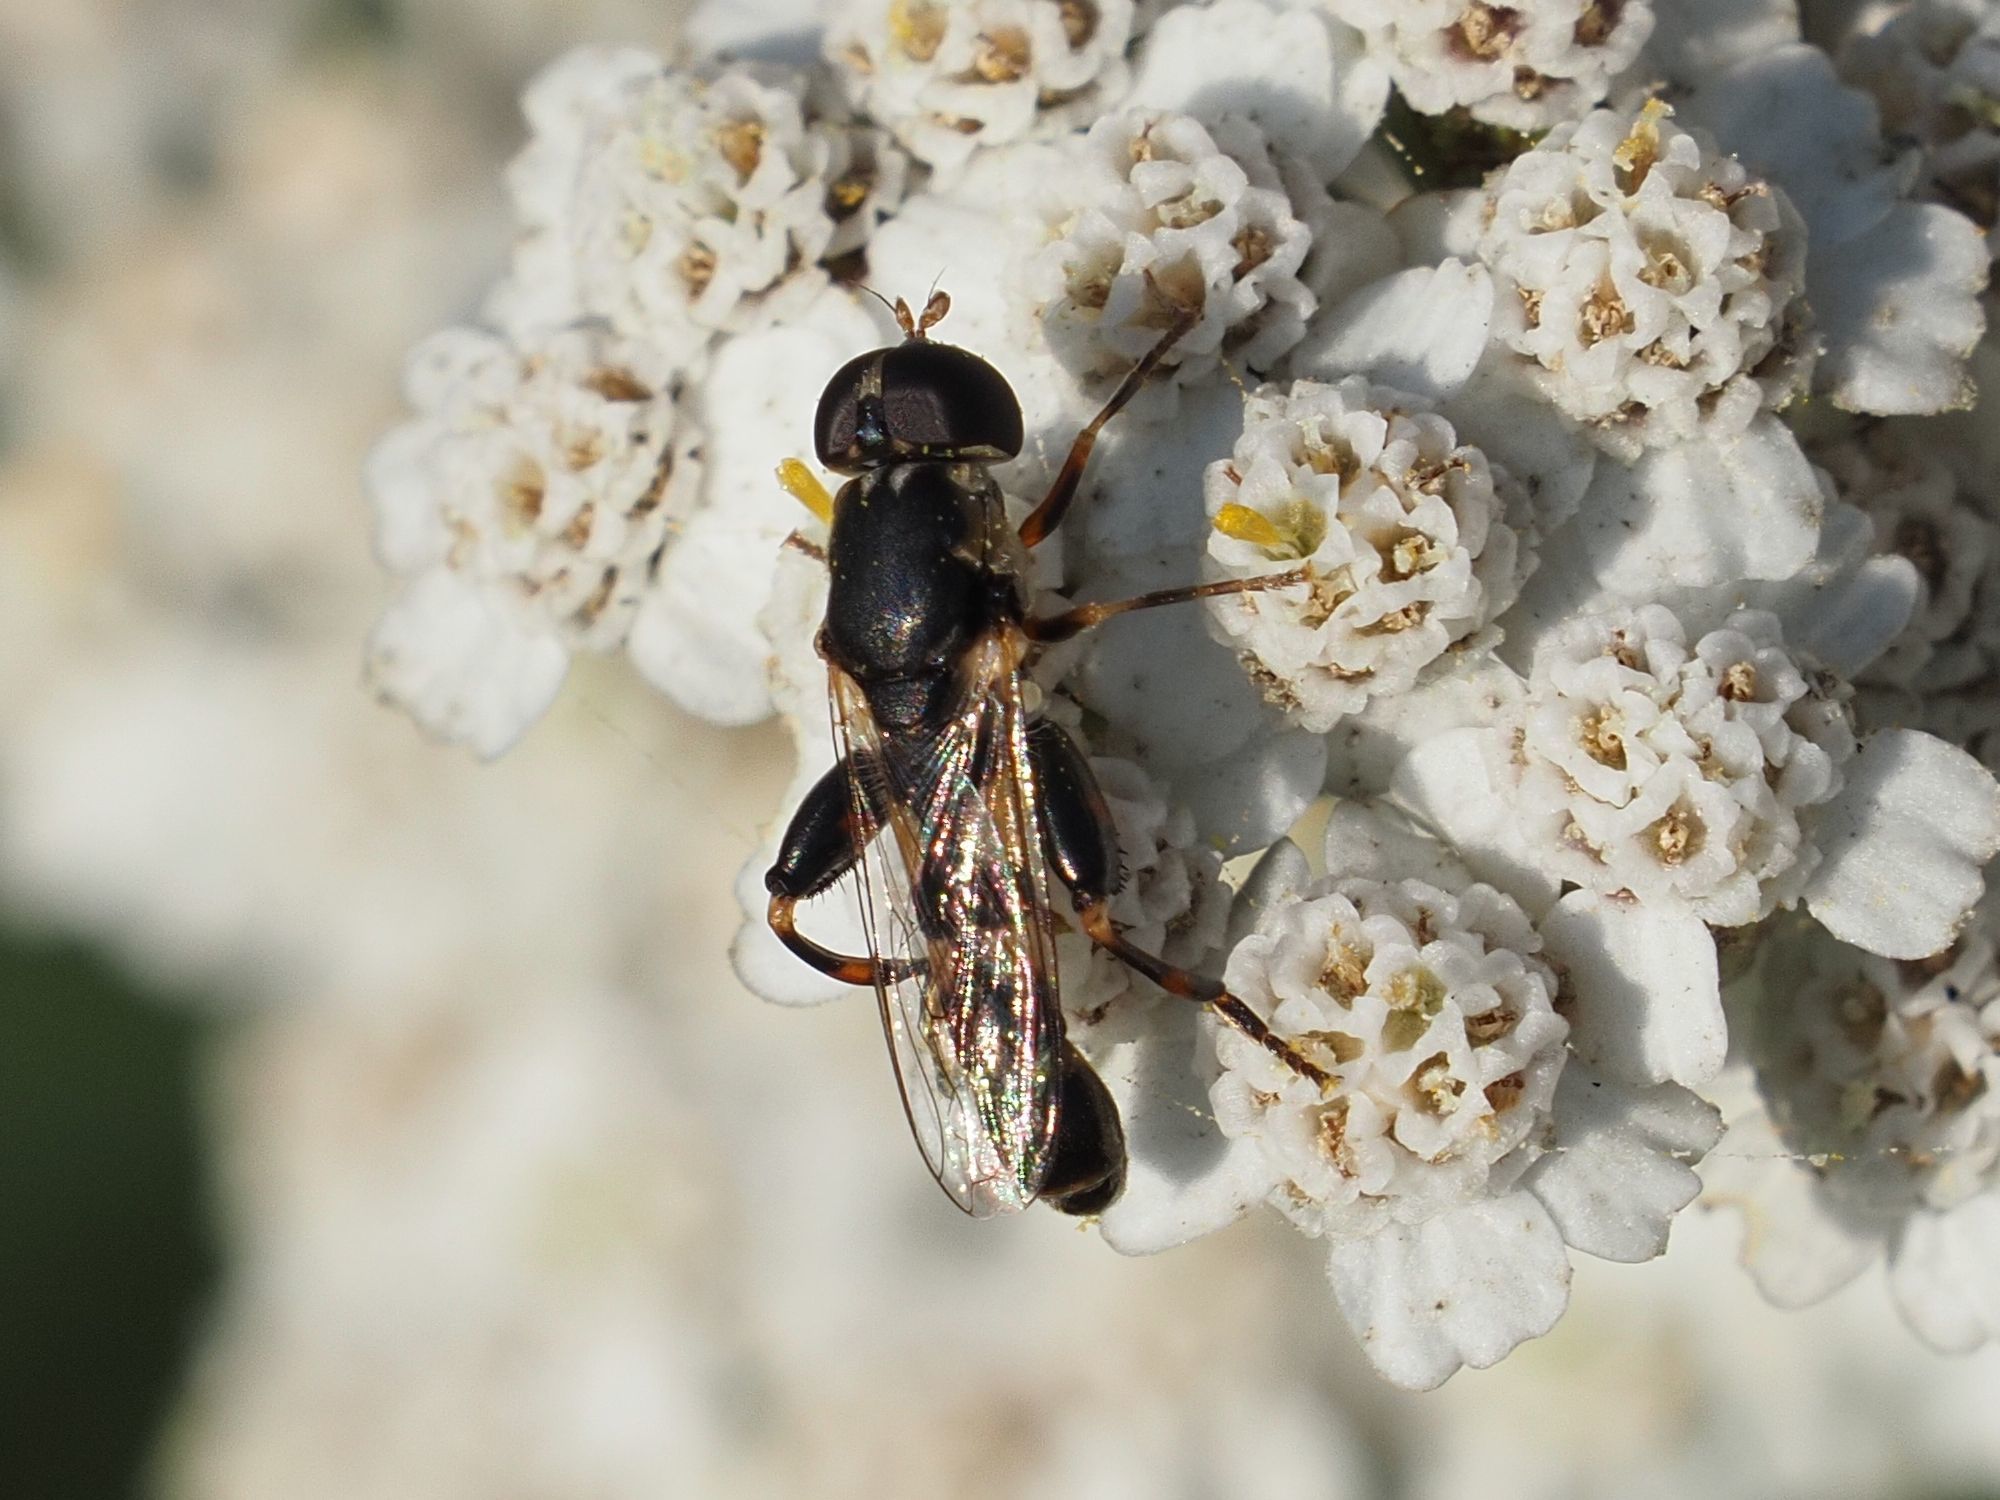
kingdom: Animalia
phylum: Arthropoda
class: Insecta
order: Diptera
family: Syrphidae
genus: Syritta
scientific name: Syritta pipiens
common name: Hover fly
